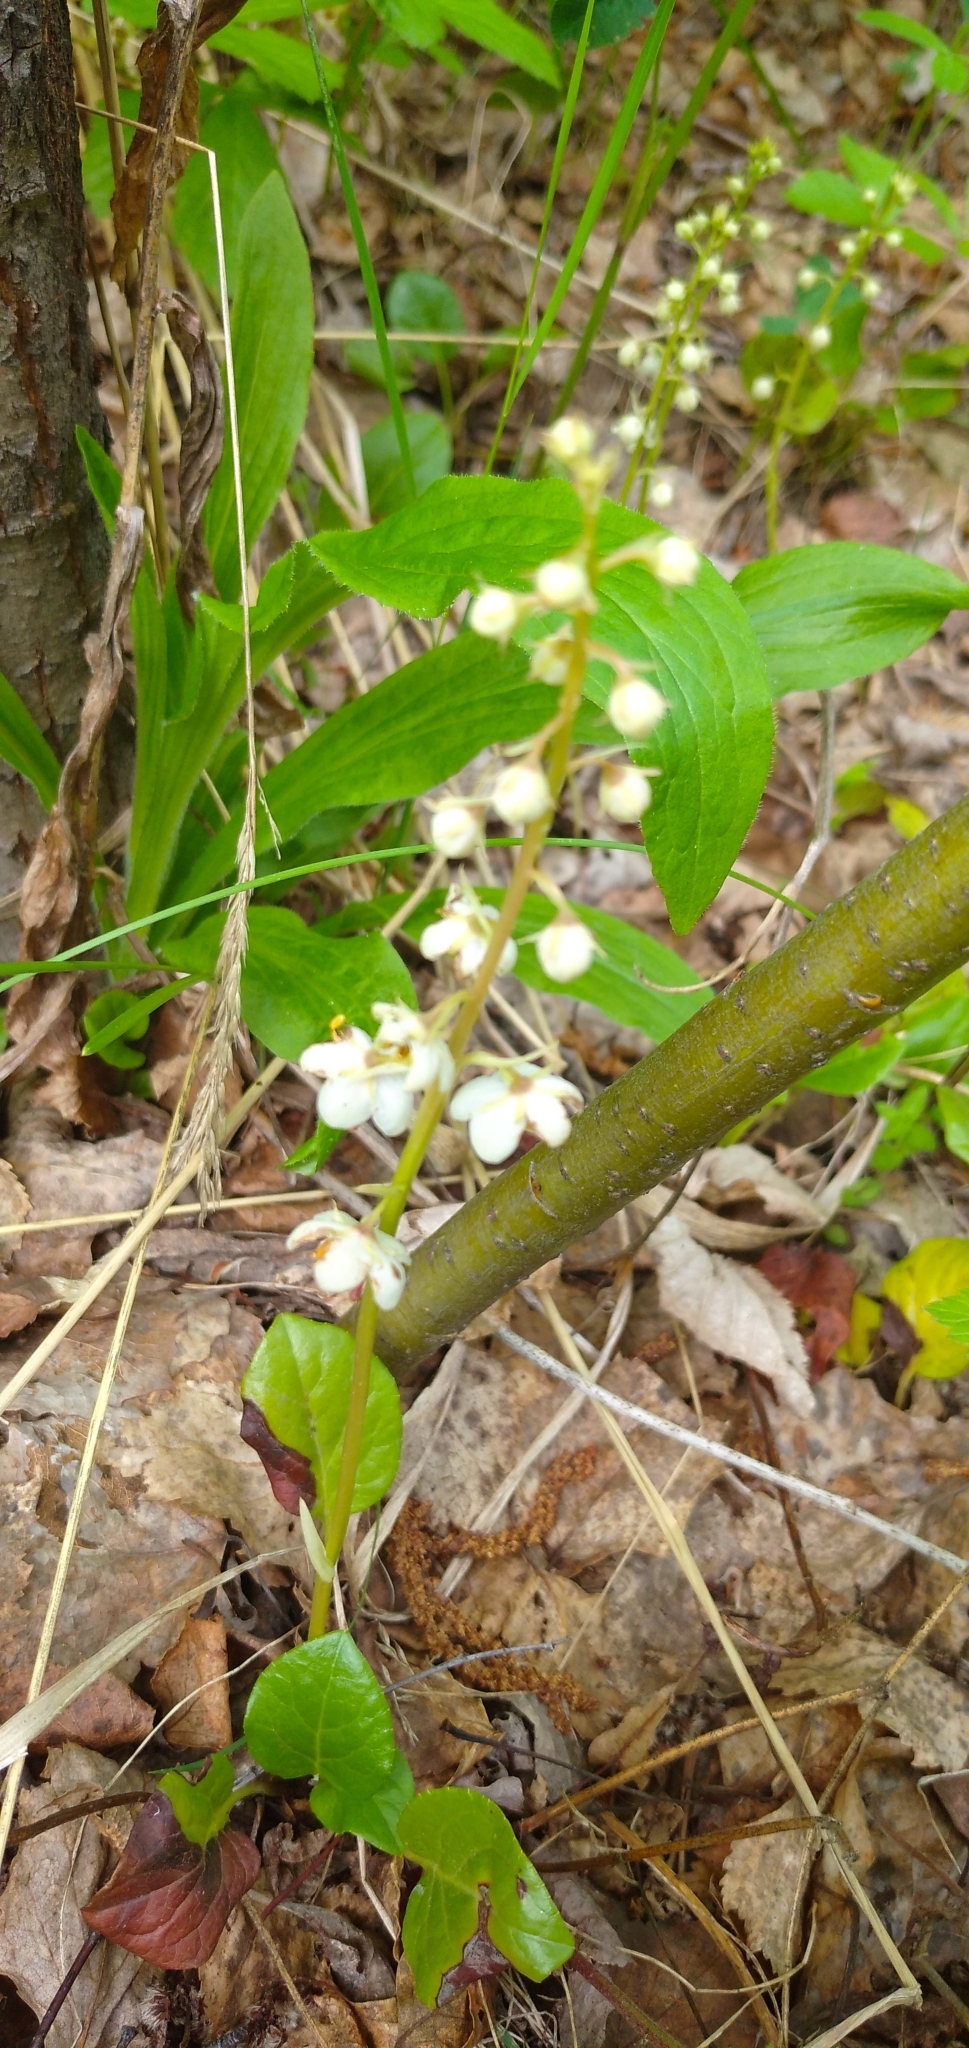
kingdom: Plantae
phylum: Tracheophyta
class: Magnoliopsida
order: Ericales
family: Ericaceae
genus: Pyrola
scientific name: Pyrola rotundifolia
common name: Round-leaved wintergreen
